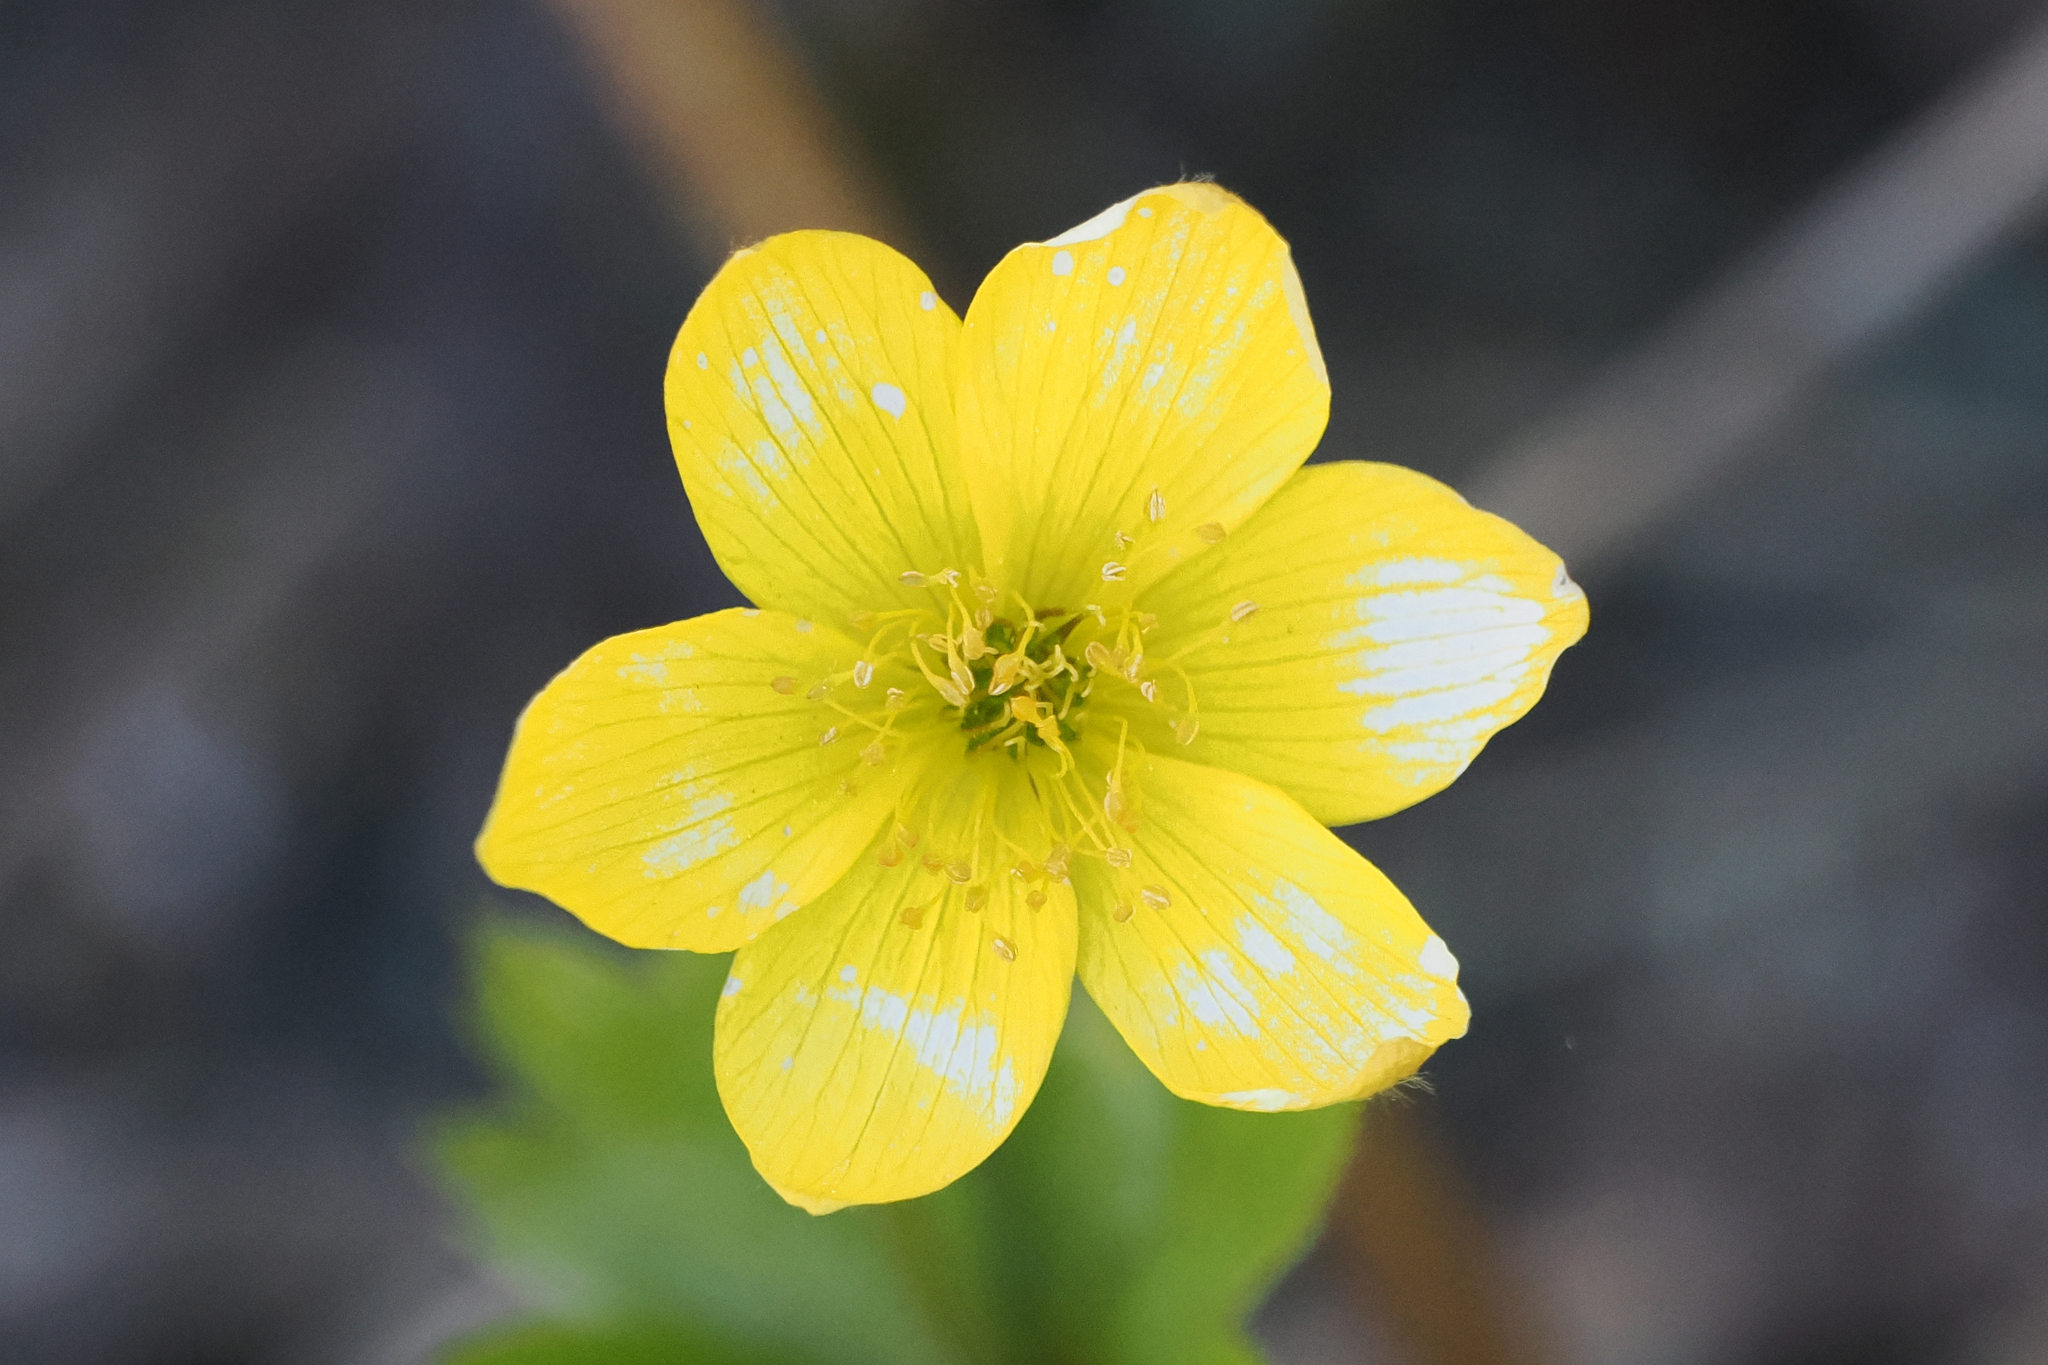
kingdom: Plantae
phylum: Tracheophyta
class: Magnoliopsida
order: Ranunculales
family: Ranunculaceae
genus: Anemonastrum
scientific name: Anemonastrum richardsonii
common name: Richardson's anemone
